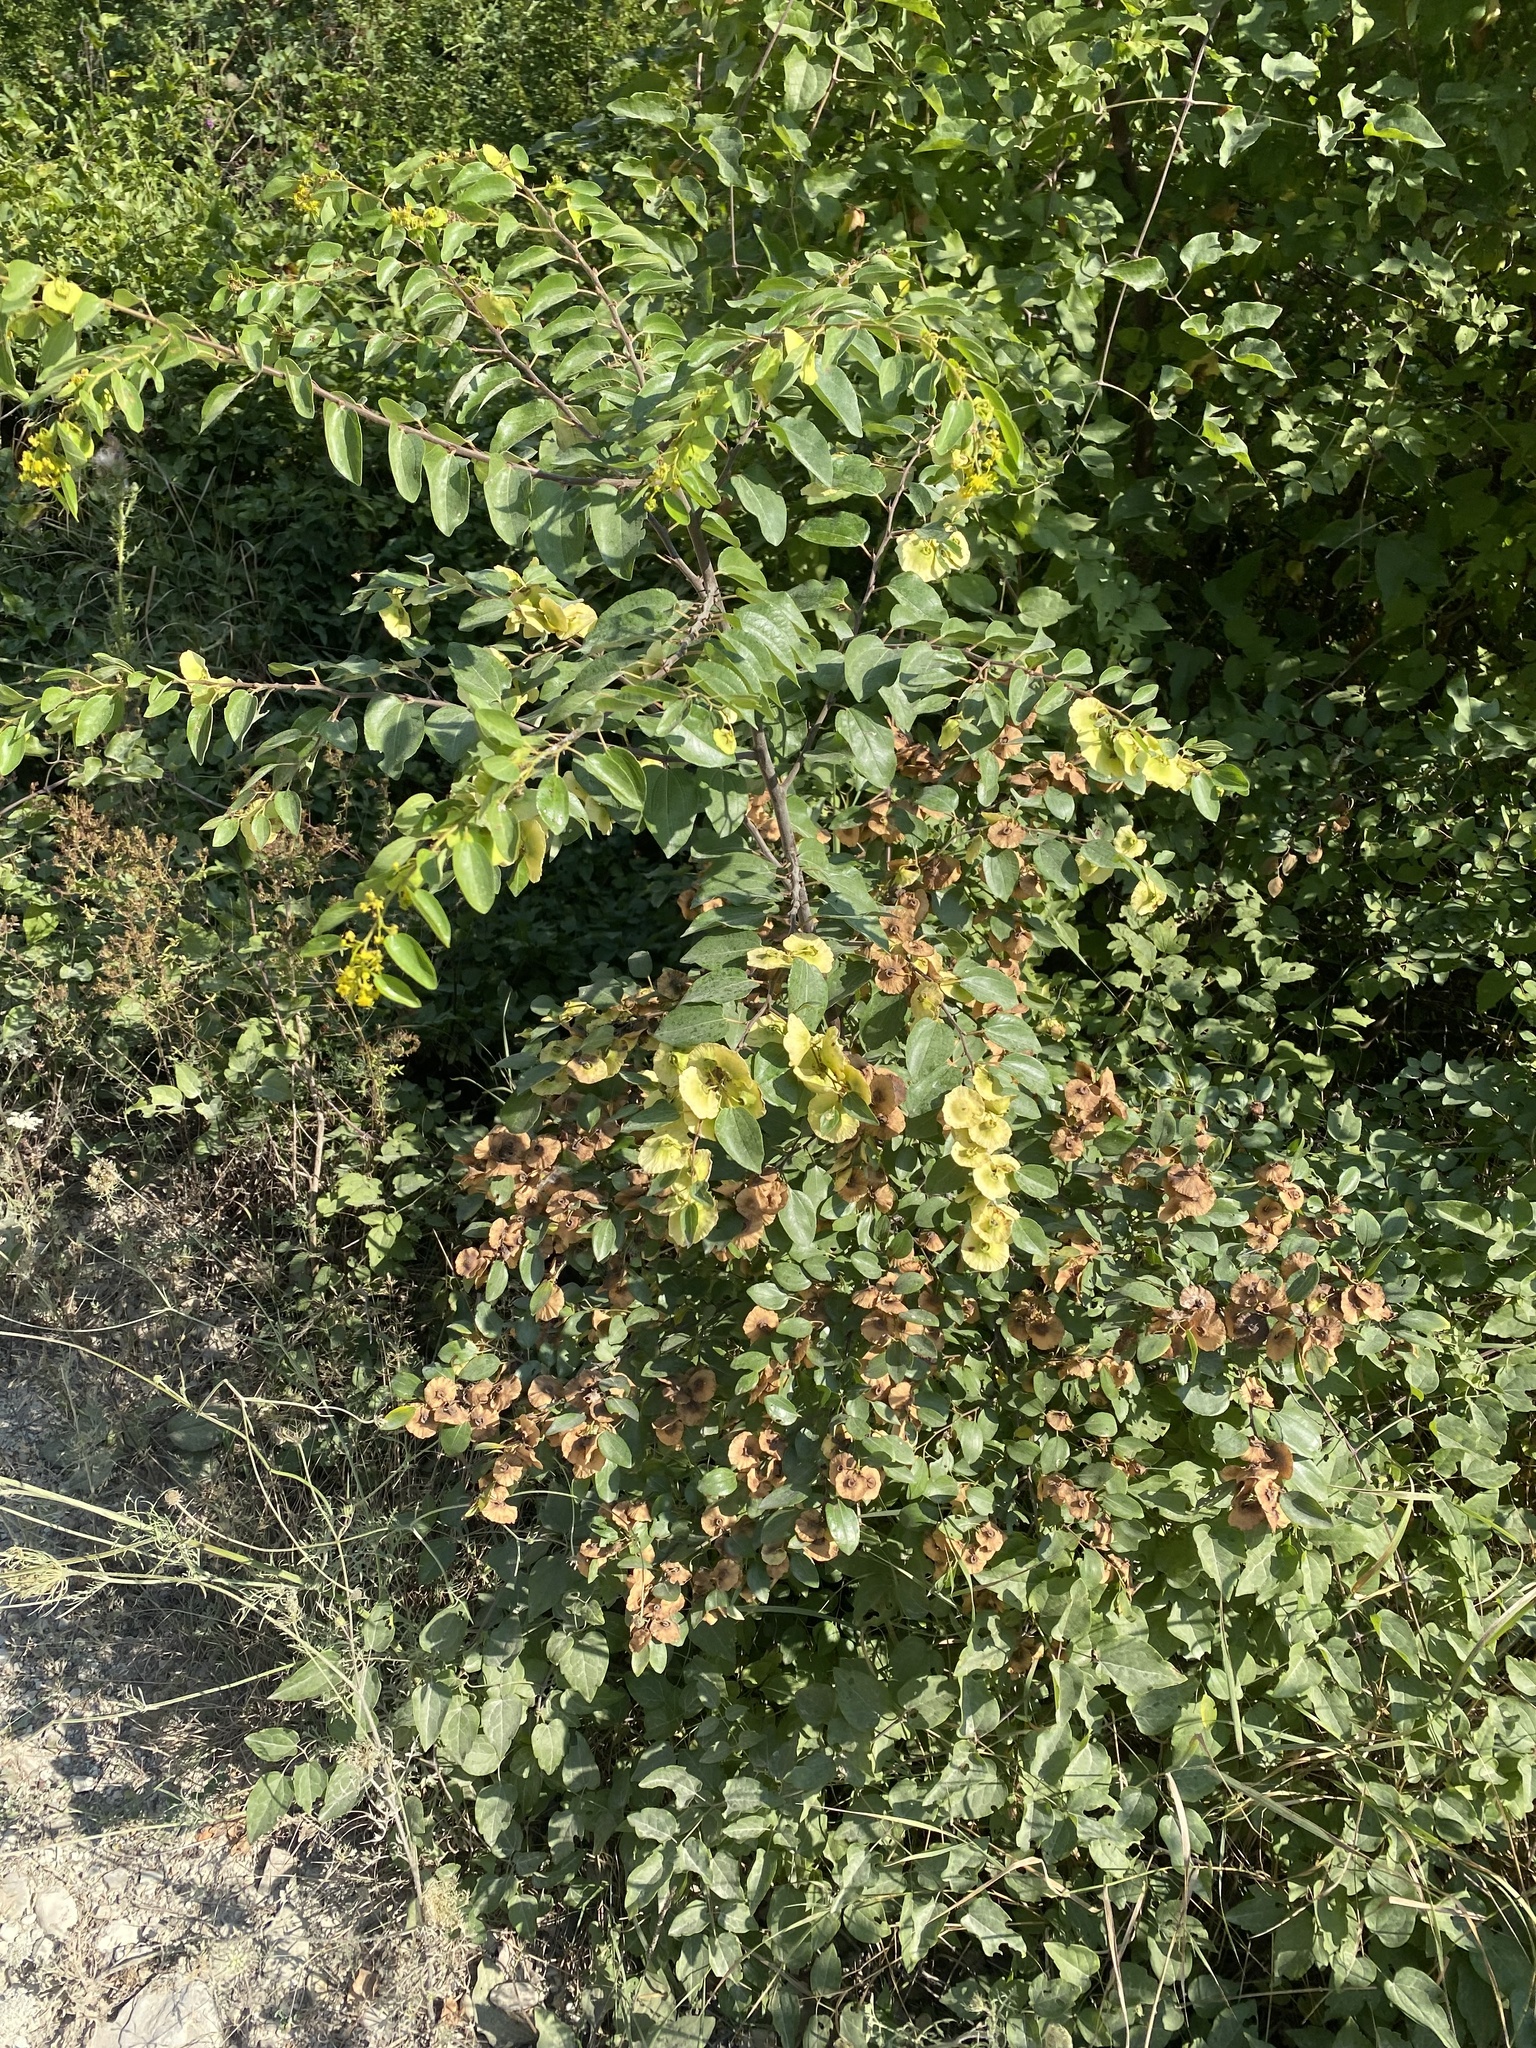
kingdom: Plantae
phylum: Tracheophyta
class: Magnoliopsida
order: Rosales
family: Rhamnaceae
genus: Paliurus
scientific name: Paliurus spina-christi
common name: Jeruselem thorn
